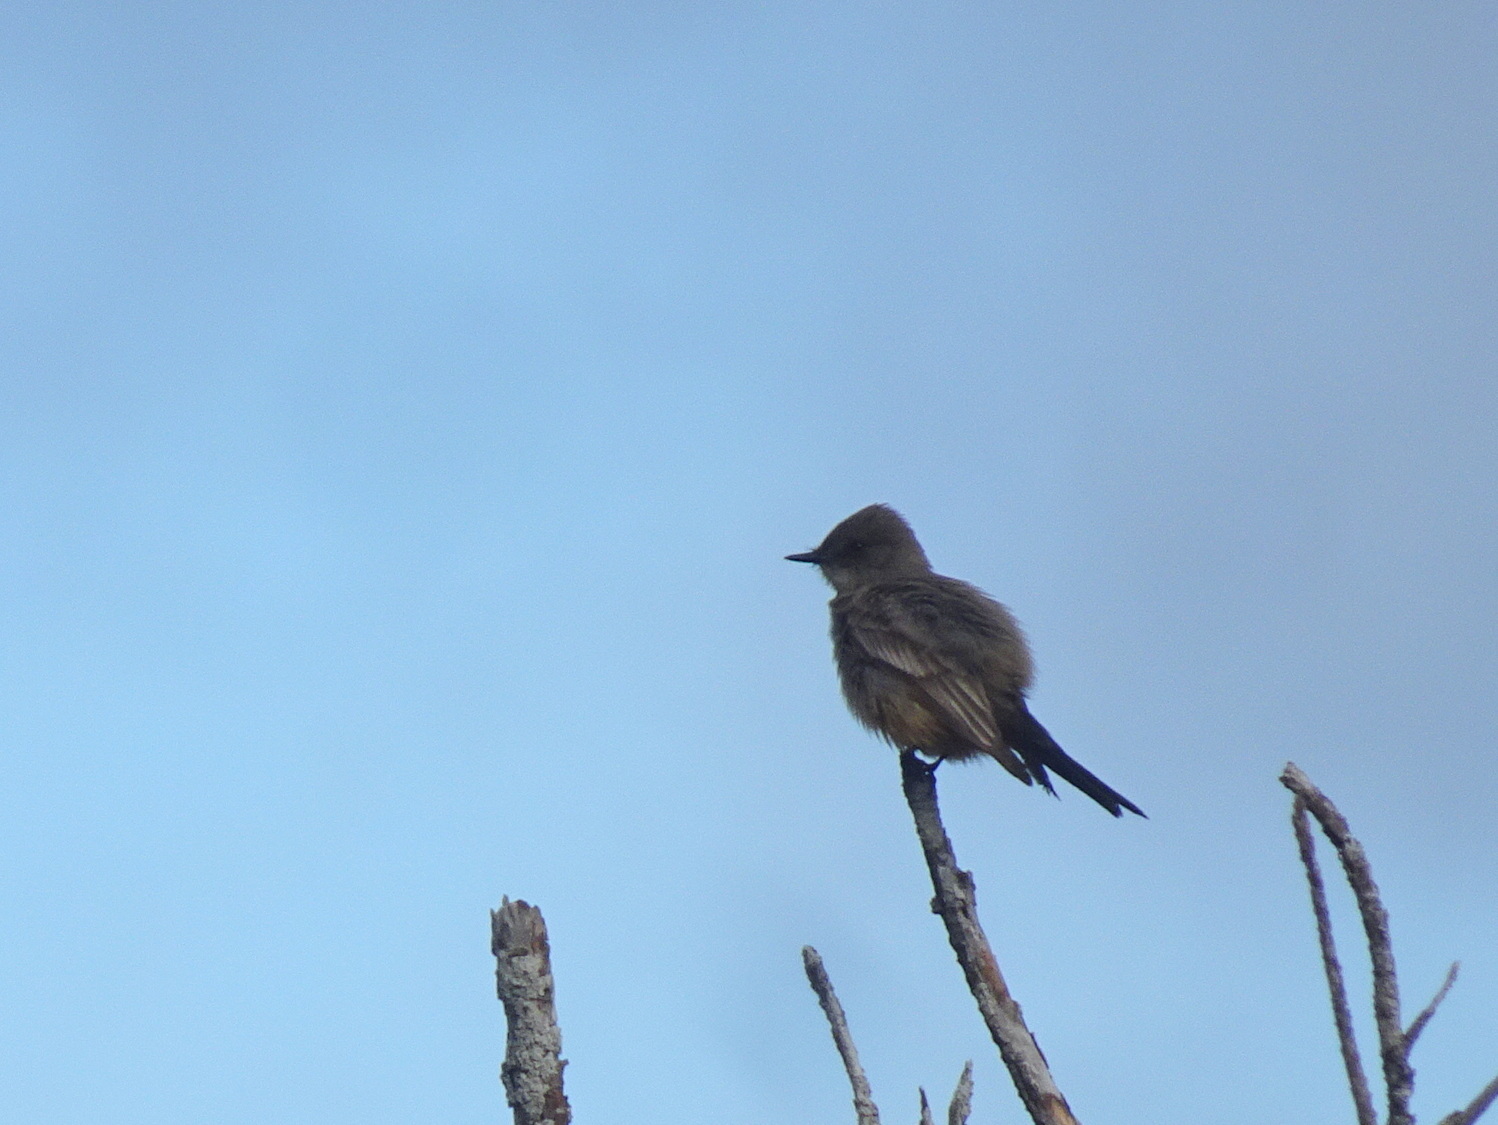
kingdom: Animalia
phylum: Chordata
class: Aves
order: Passeriformes
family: Tyrannidae
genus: Sayornis
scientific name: Sayornis saya
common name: Say's phoebe
